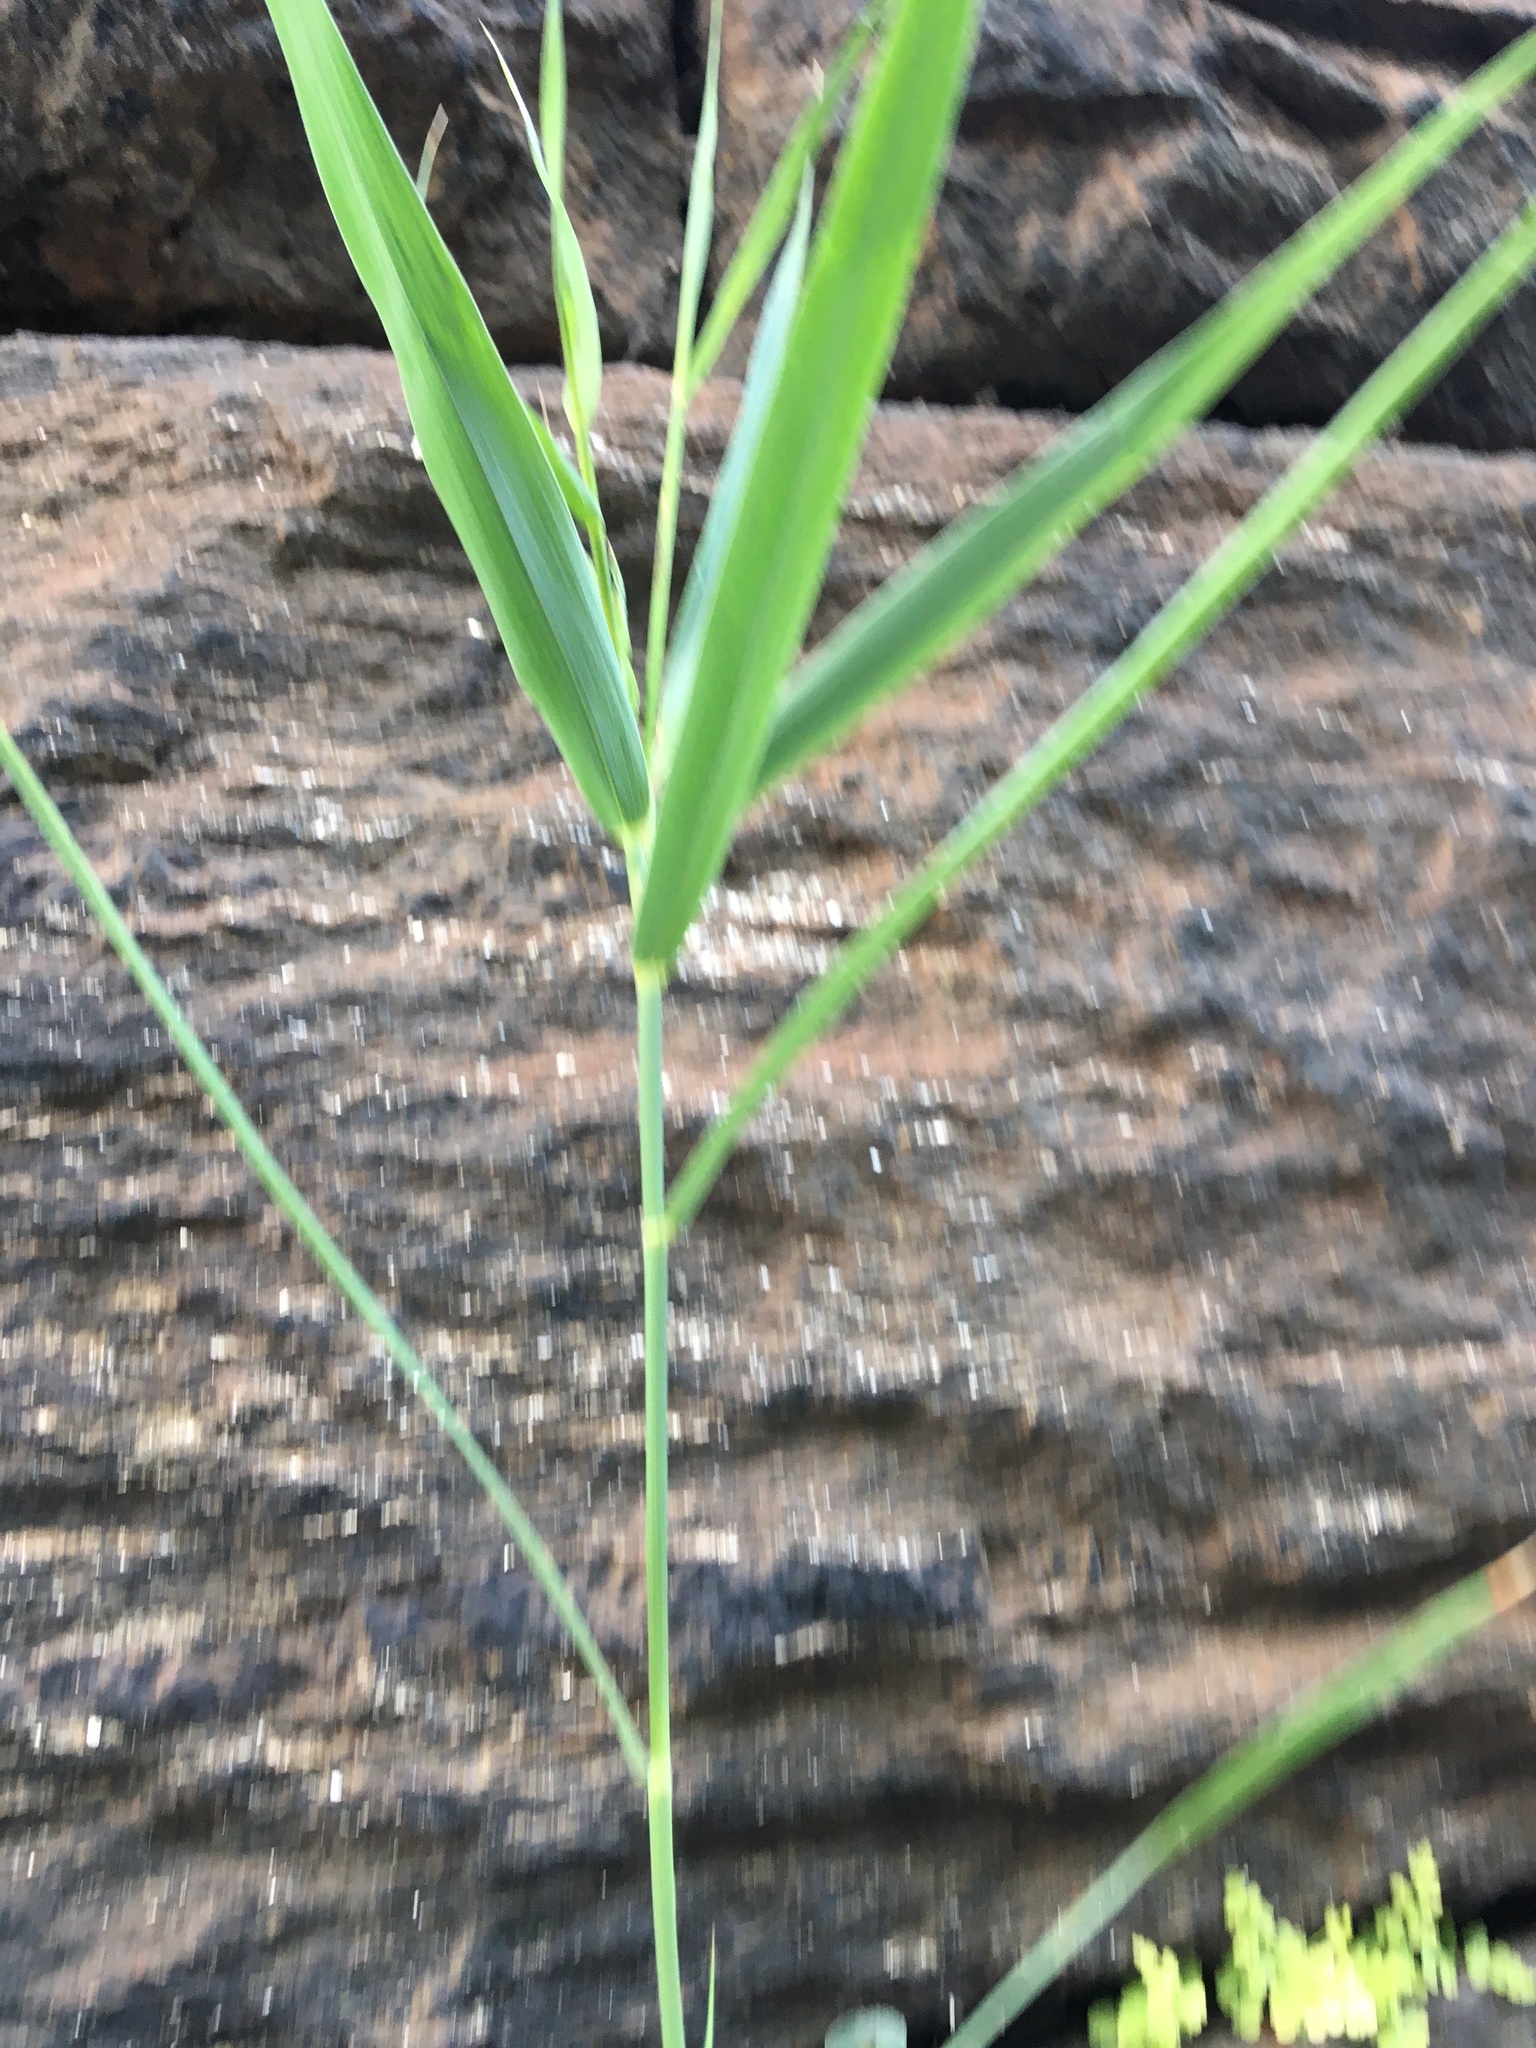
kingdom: Plantae
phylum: Tracheophyta
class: Liliopsida
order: Poales
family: Poaceae
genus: Phragmites
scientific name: Phragmites australis
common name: Common reed
